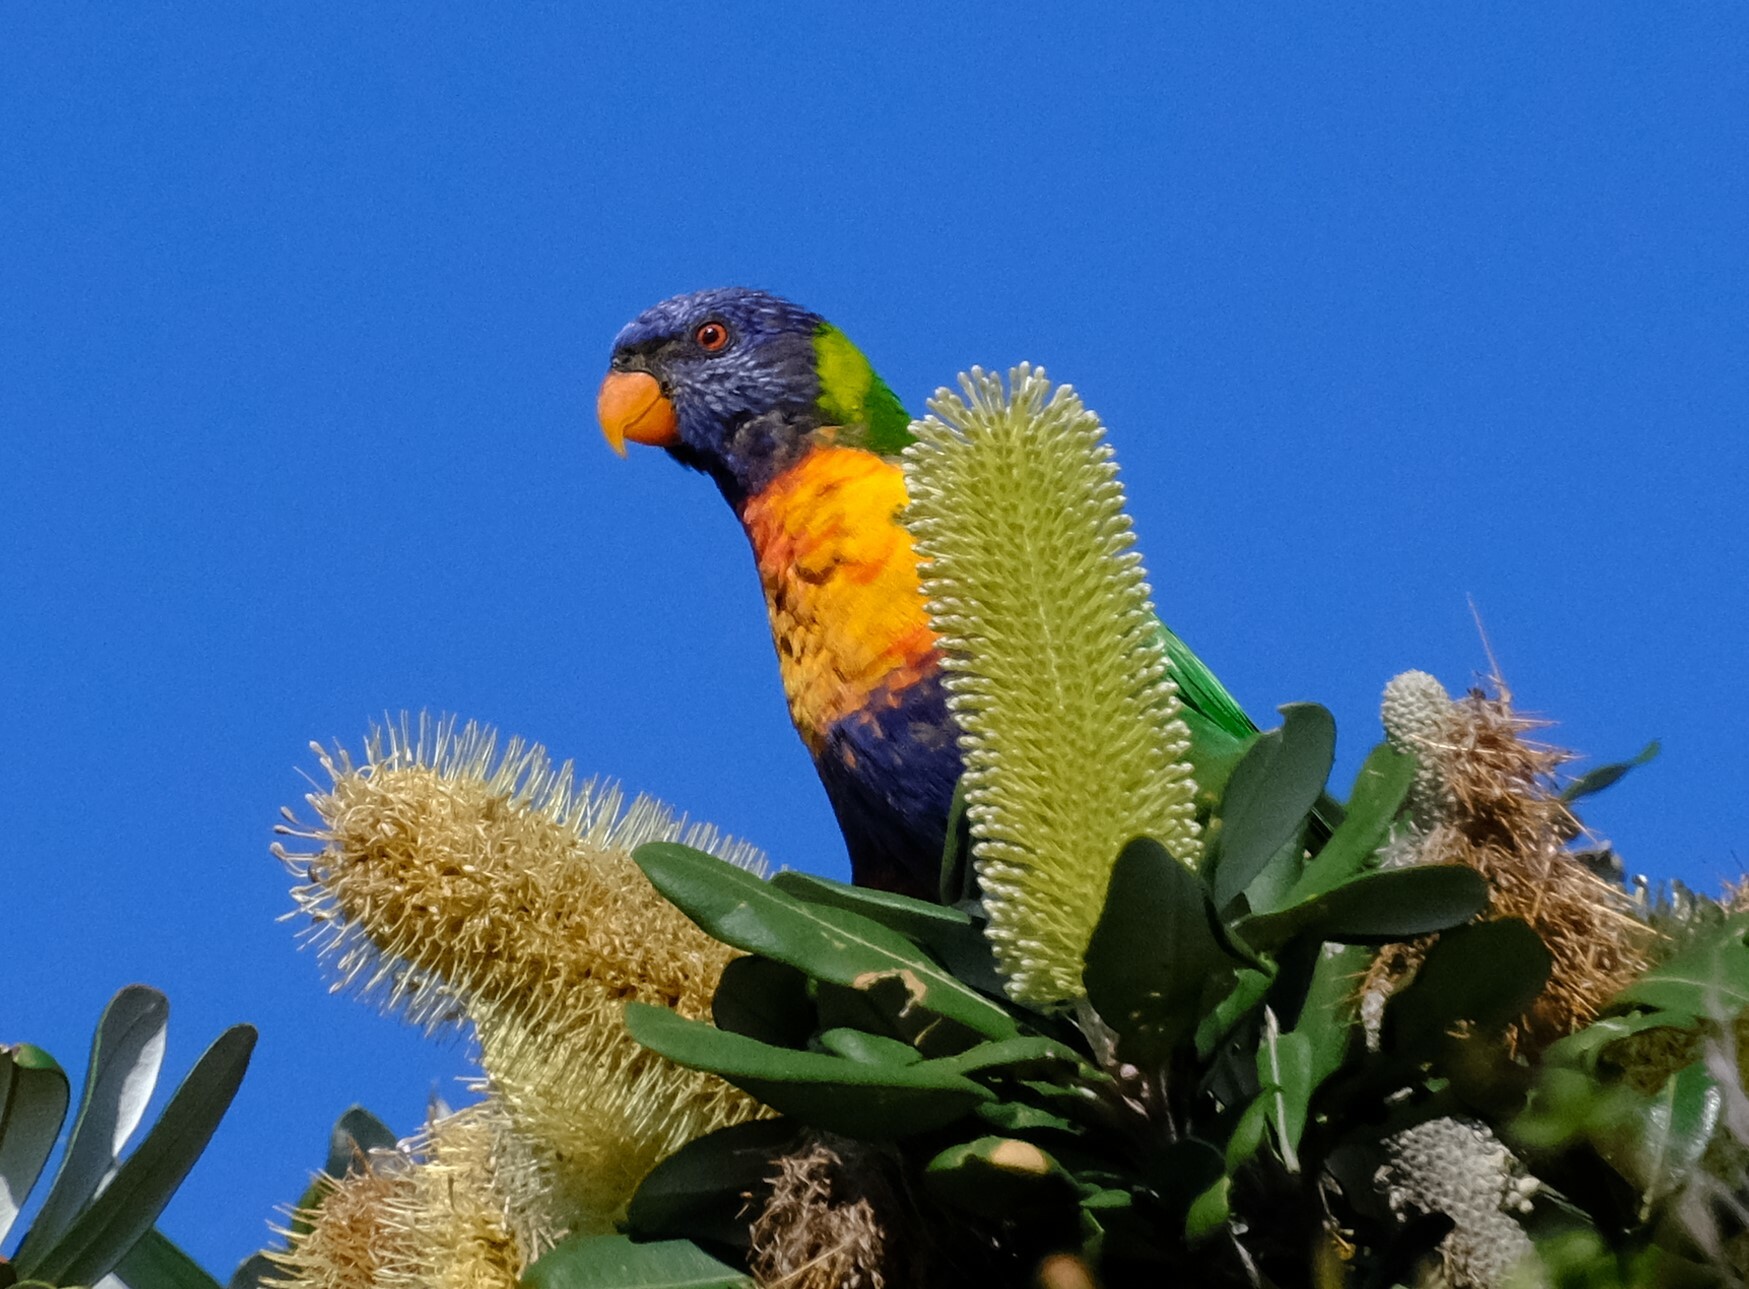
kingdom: Animalia
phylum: Chordata
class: Aves
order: Psittaciformes
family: Psittacidae
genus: Trichoglossus
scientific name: Trichoglossus haematodus
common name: Coconut lorikeet
